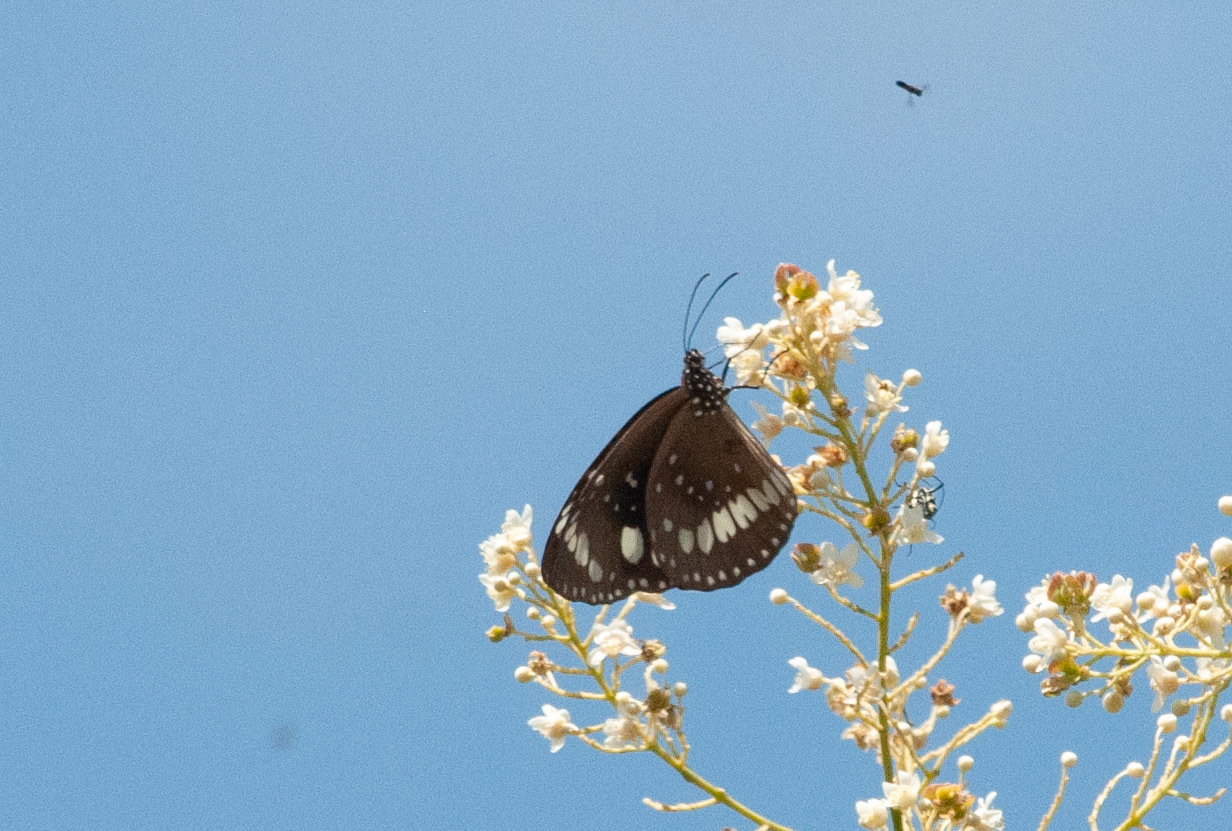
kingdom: Animalia
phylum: Arthropoda
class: Insecta
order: Lepidoptera
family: Nymphalidae
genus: Euploea
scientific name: Euploea core
